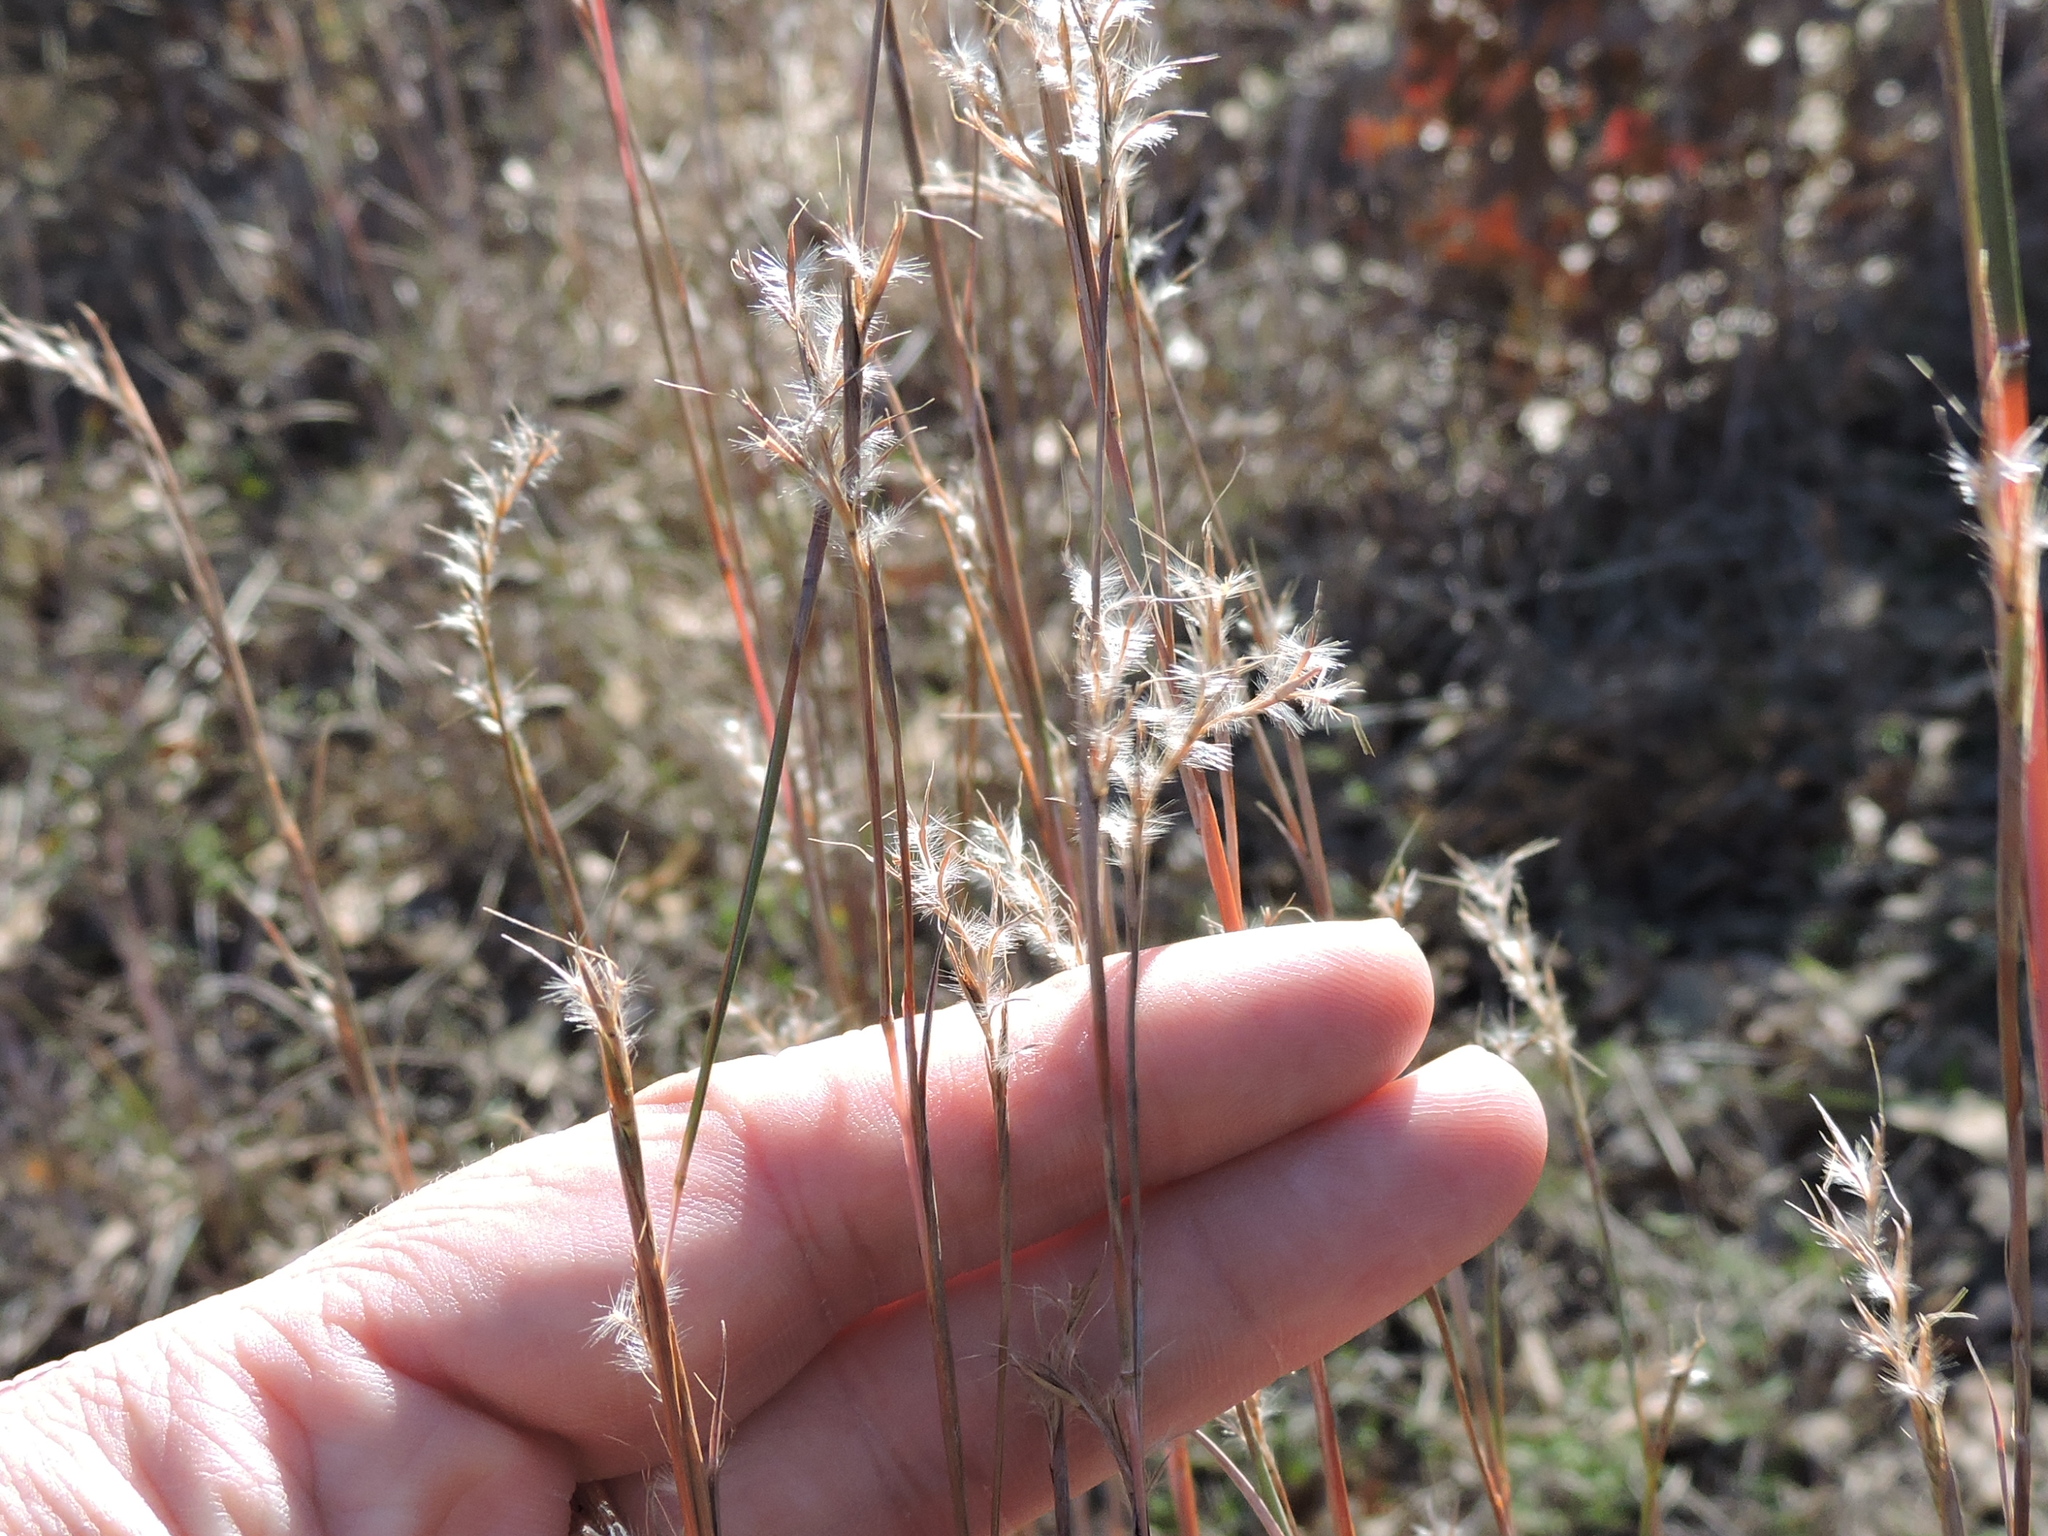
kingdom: Plantae
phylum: Tracheophyta
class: Liliopsida
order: Poales
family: Poaceae
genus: Schizachyrium
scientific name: Schizachyrium scoparium
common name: Little bluestem
